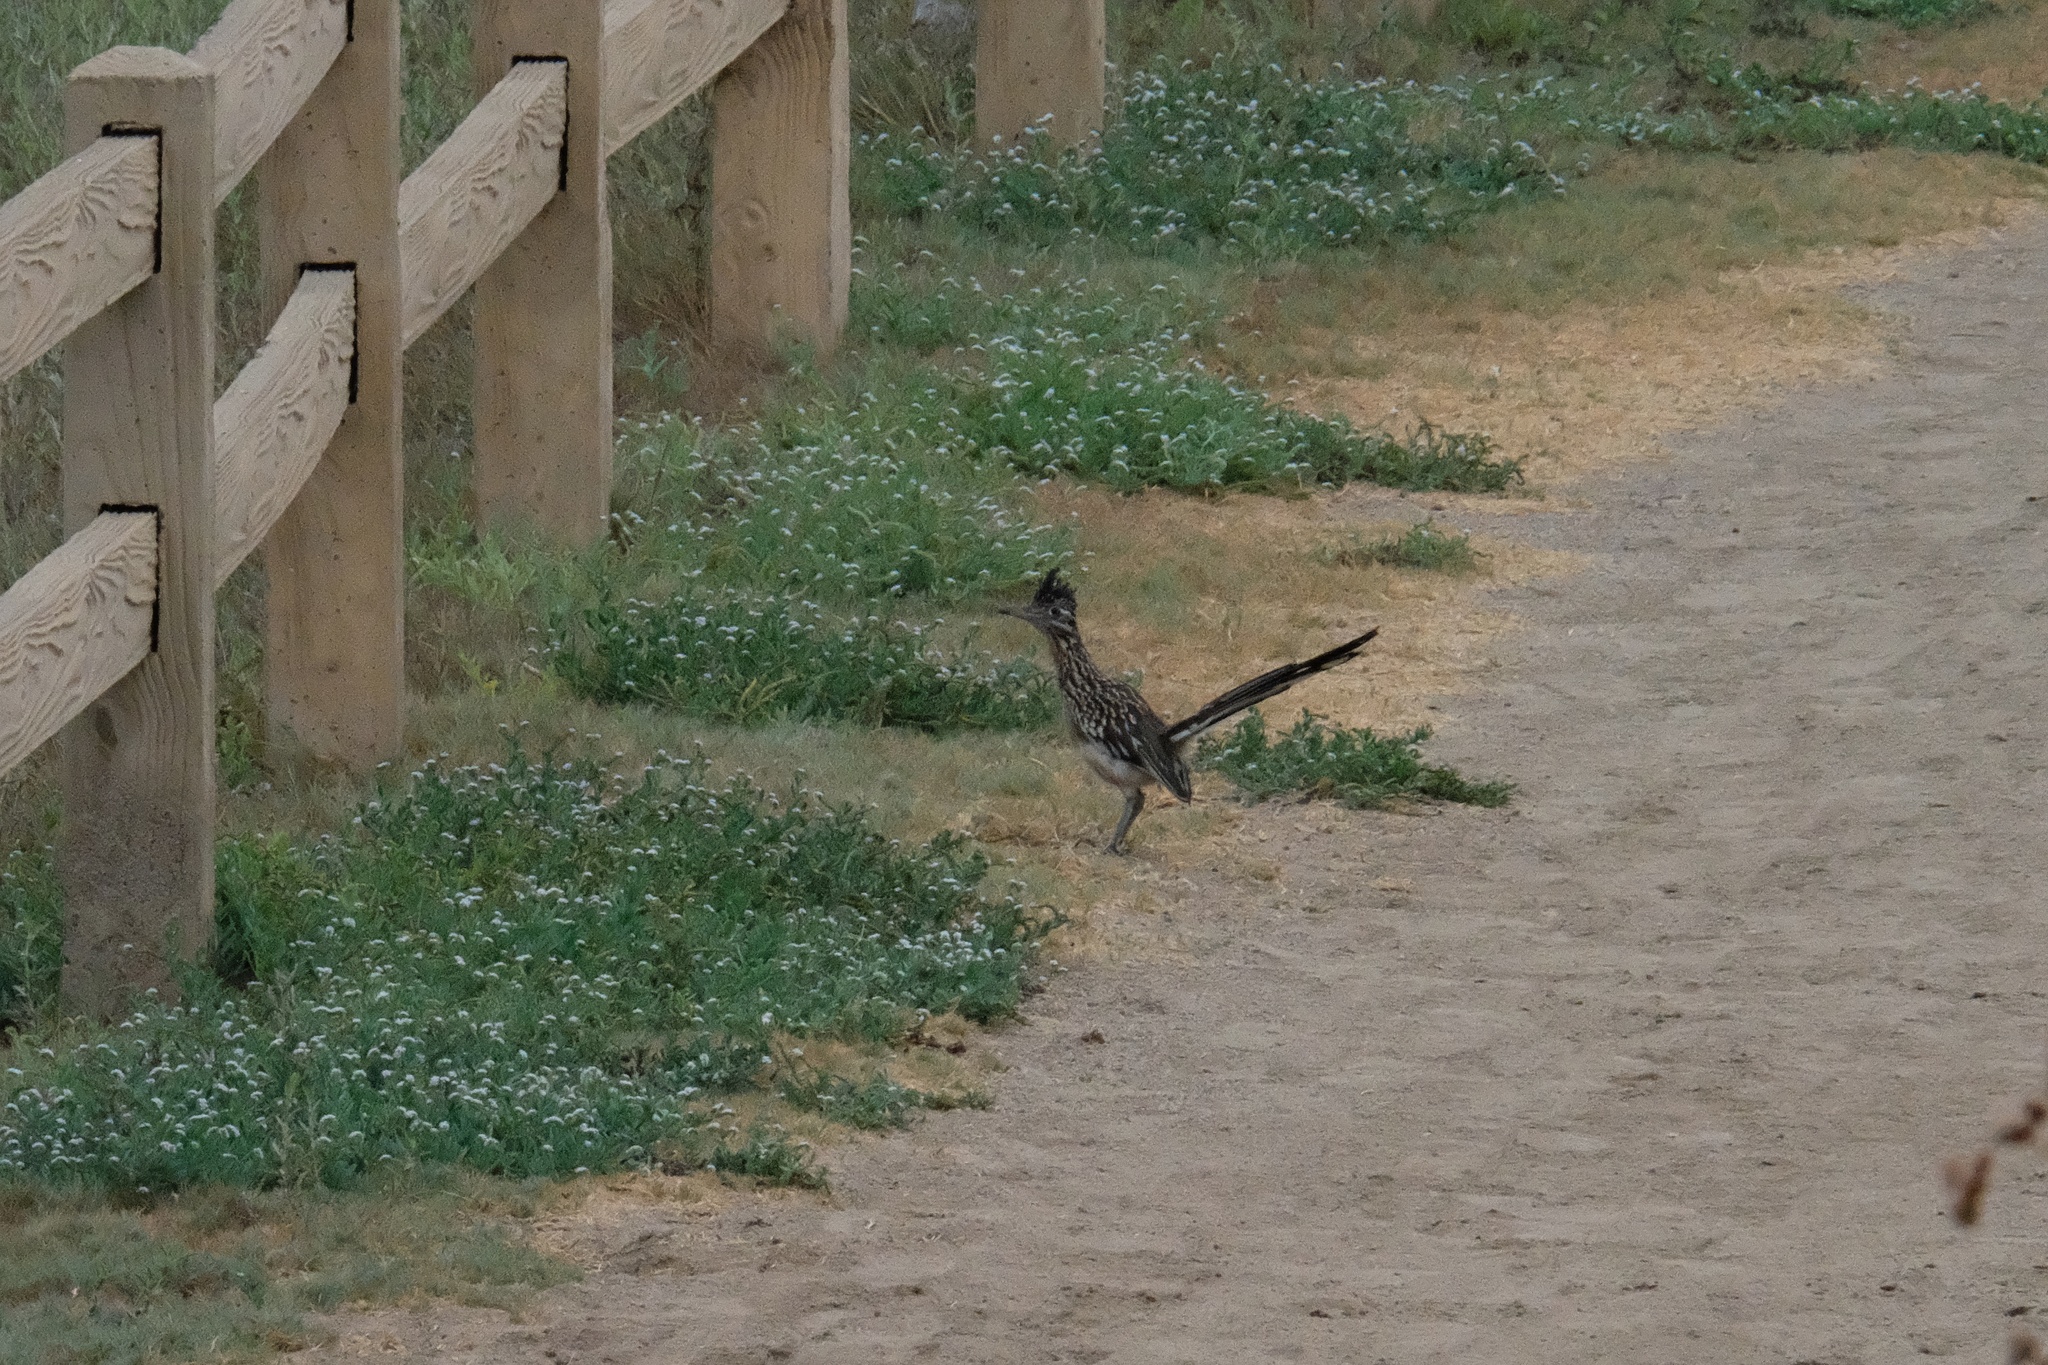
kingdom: Animalia
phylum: Chordata
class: Aves
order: Cuculiformes
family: Cuculidae
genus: Geococcyx
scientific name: Geococcyx californianus
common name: Greater roadrunner
